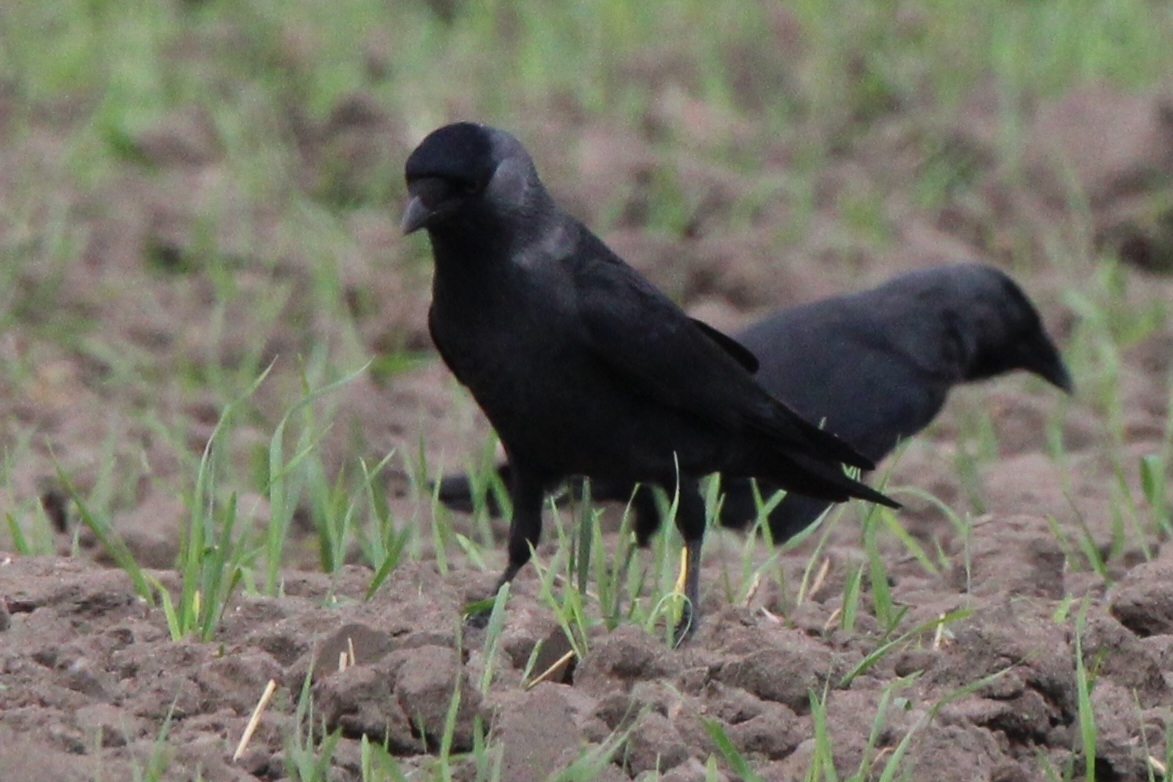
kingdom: Animalia
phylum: Chordata
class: Aves
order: Passeriformes
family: Corvidae
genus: Coloeus
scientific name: Coloeus monedula
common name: Western jackdaw
